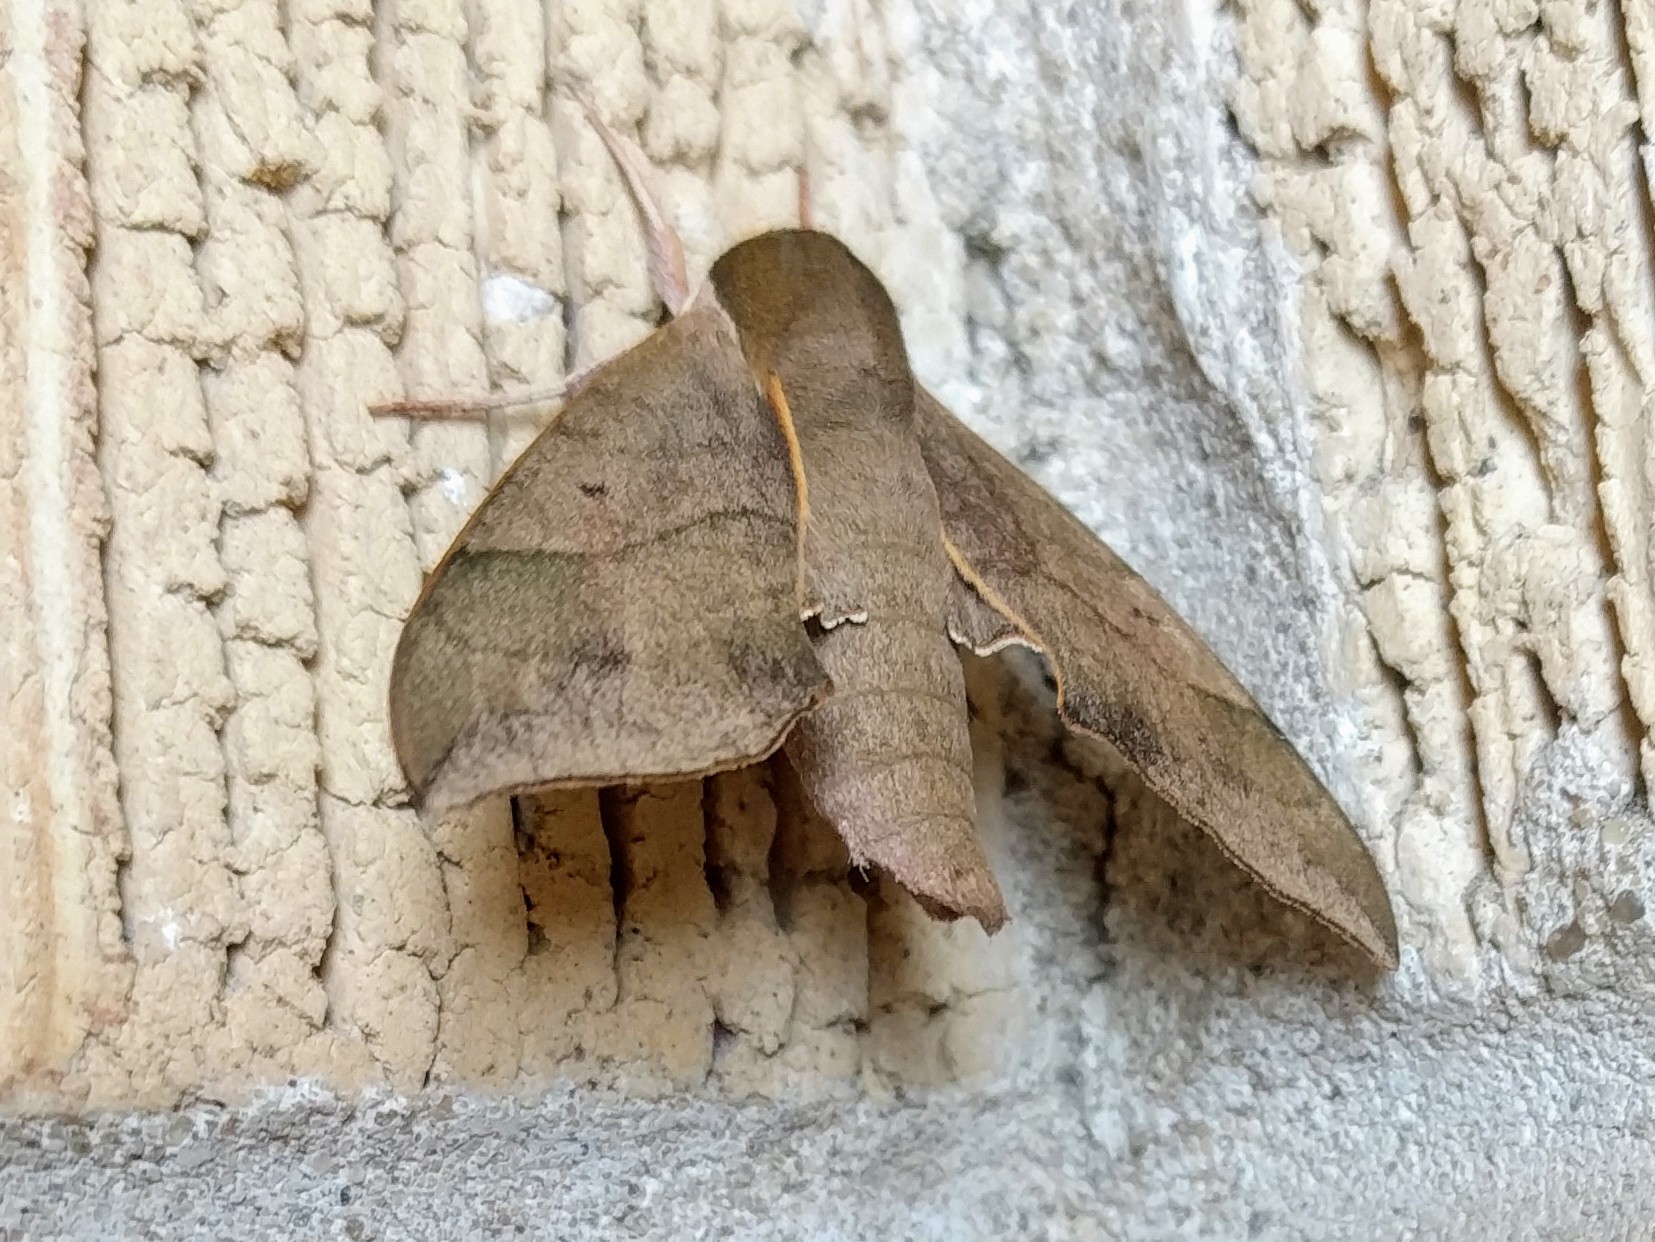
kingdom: Animalia
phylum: Arthropoda
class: Insecta
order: Lepidoptera
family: Sphingidae
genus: Darapsa
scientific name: Darapsa myron
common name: Hog sphinx
